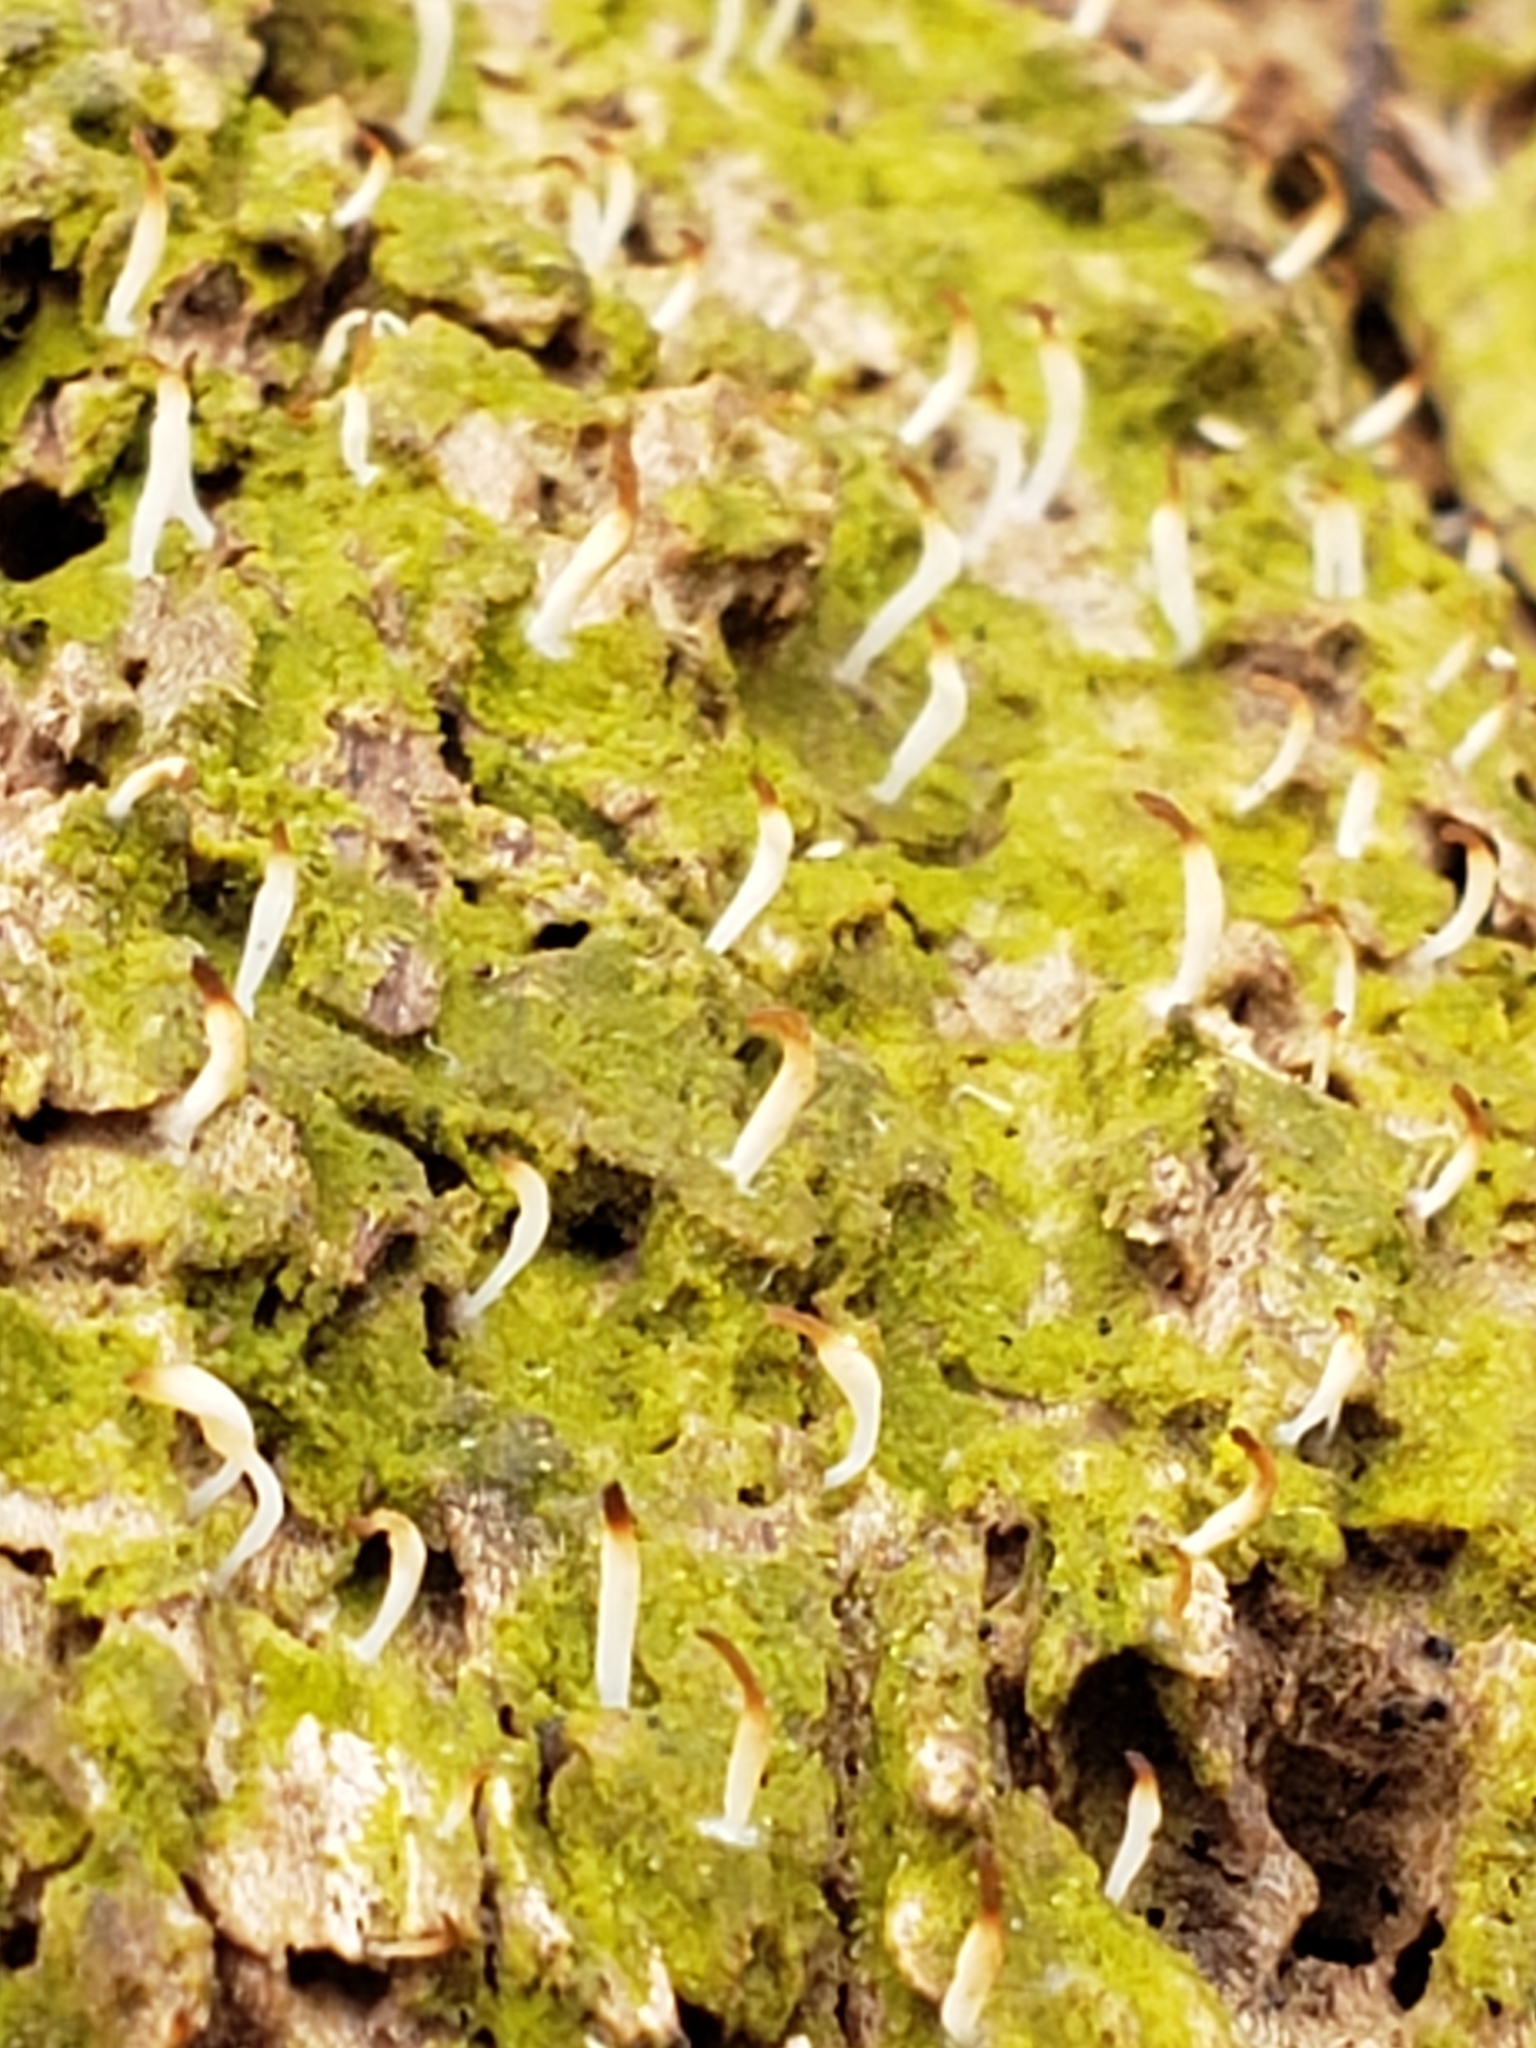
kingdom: Fungi
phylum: Basidiomycota
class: Agaricomycetes
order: Cantharellales
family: Hydnaceae
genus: Multiclavula
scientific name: Multiclavula mucida
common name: White green-algae coral
